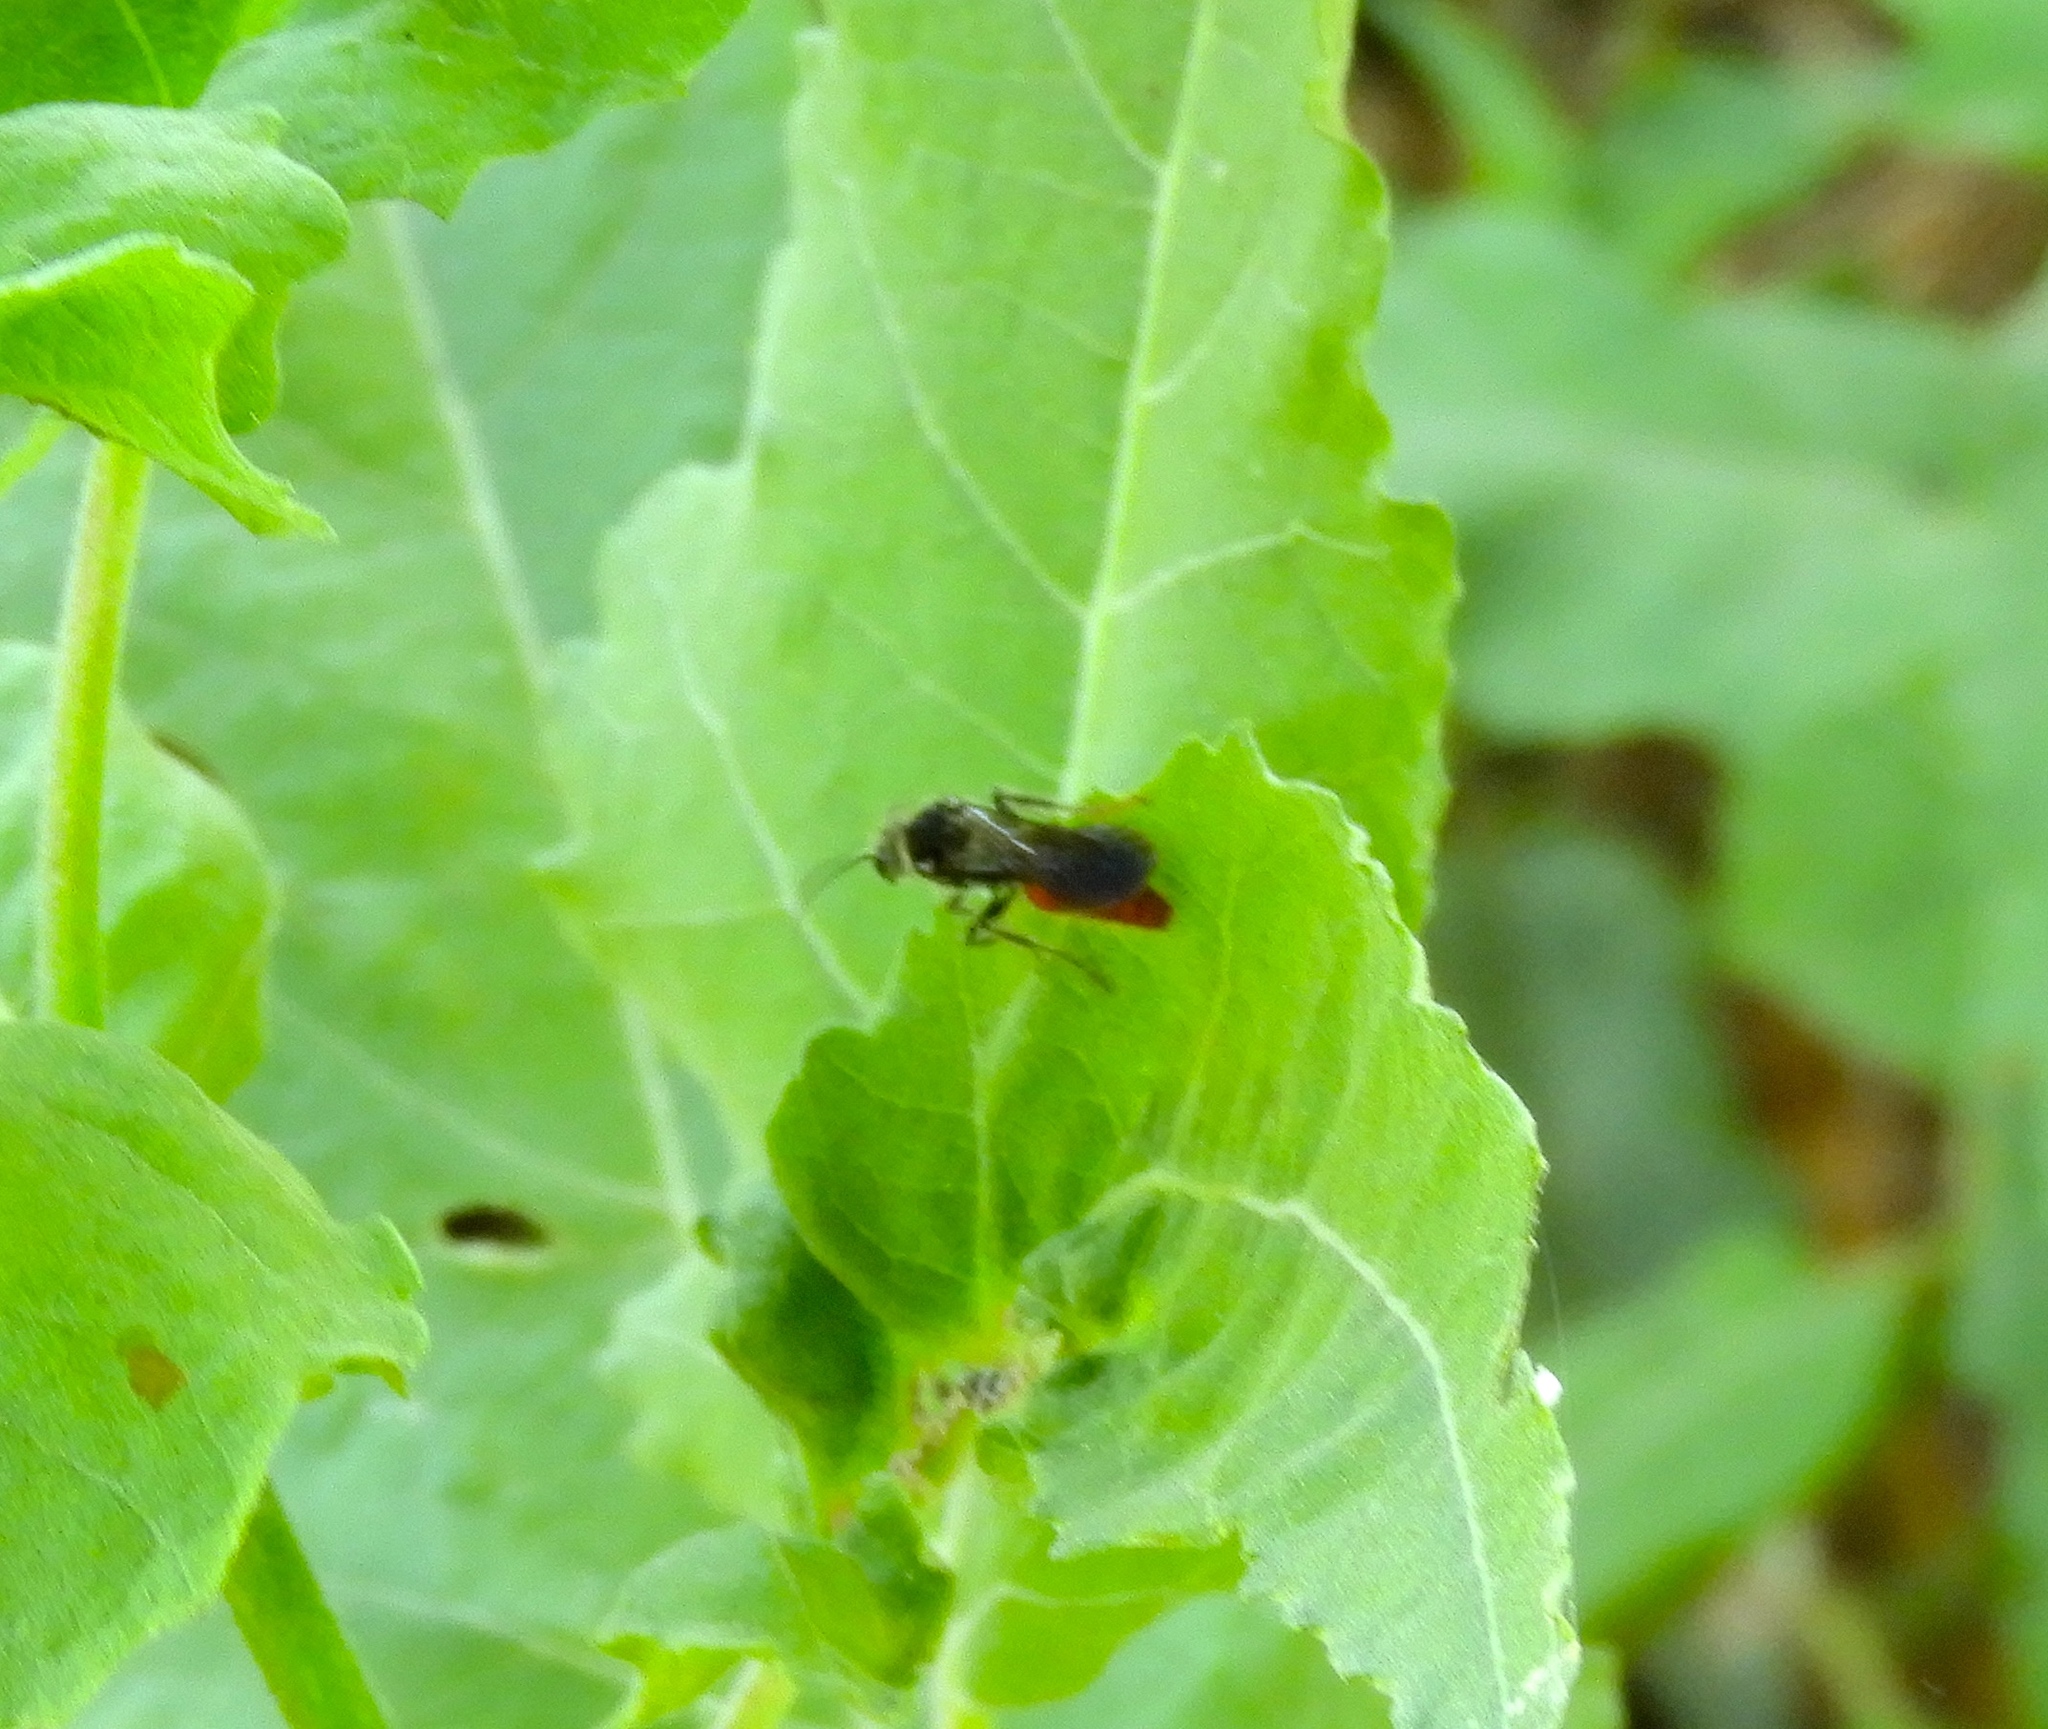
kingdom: Animalia
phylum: Arthropoda
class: Insecta
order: Hymenoptera
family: Mutillidae
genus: Timulla
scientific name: Timulla
